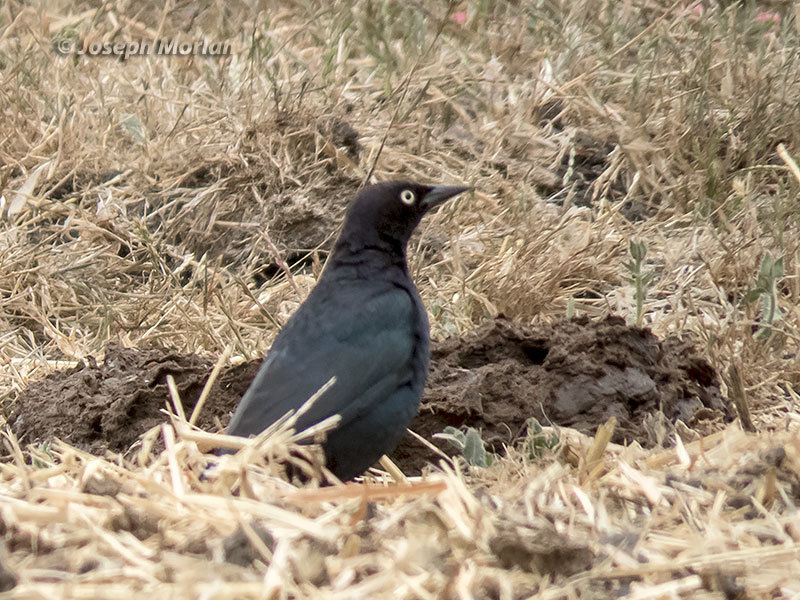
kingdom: Animalia
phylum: Chordata
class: Aves
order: Passeriformes
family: Icteridae
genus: Euphagus
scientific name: Euphagus cyanocephalus
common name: Brewer's blackbird
